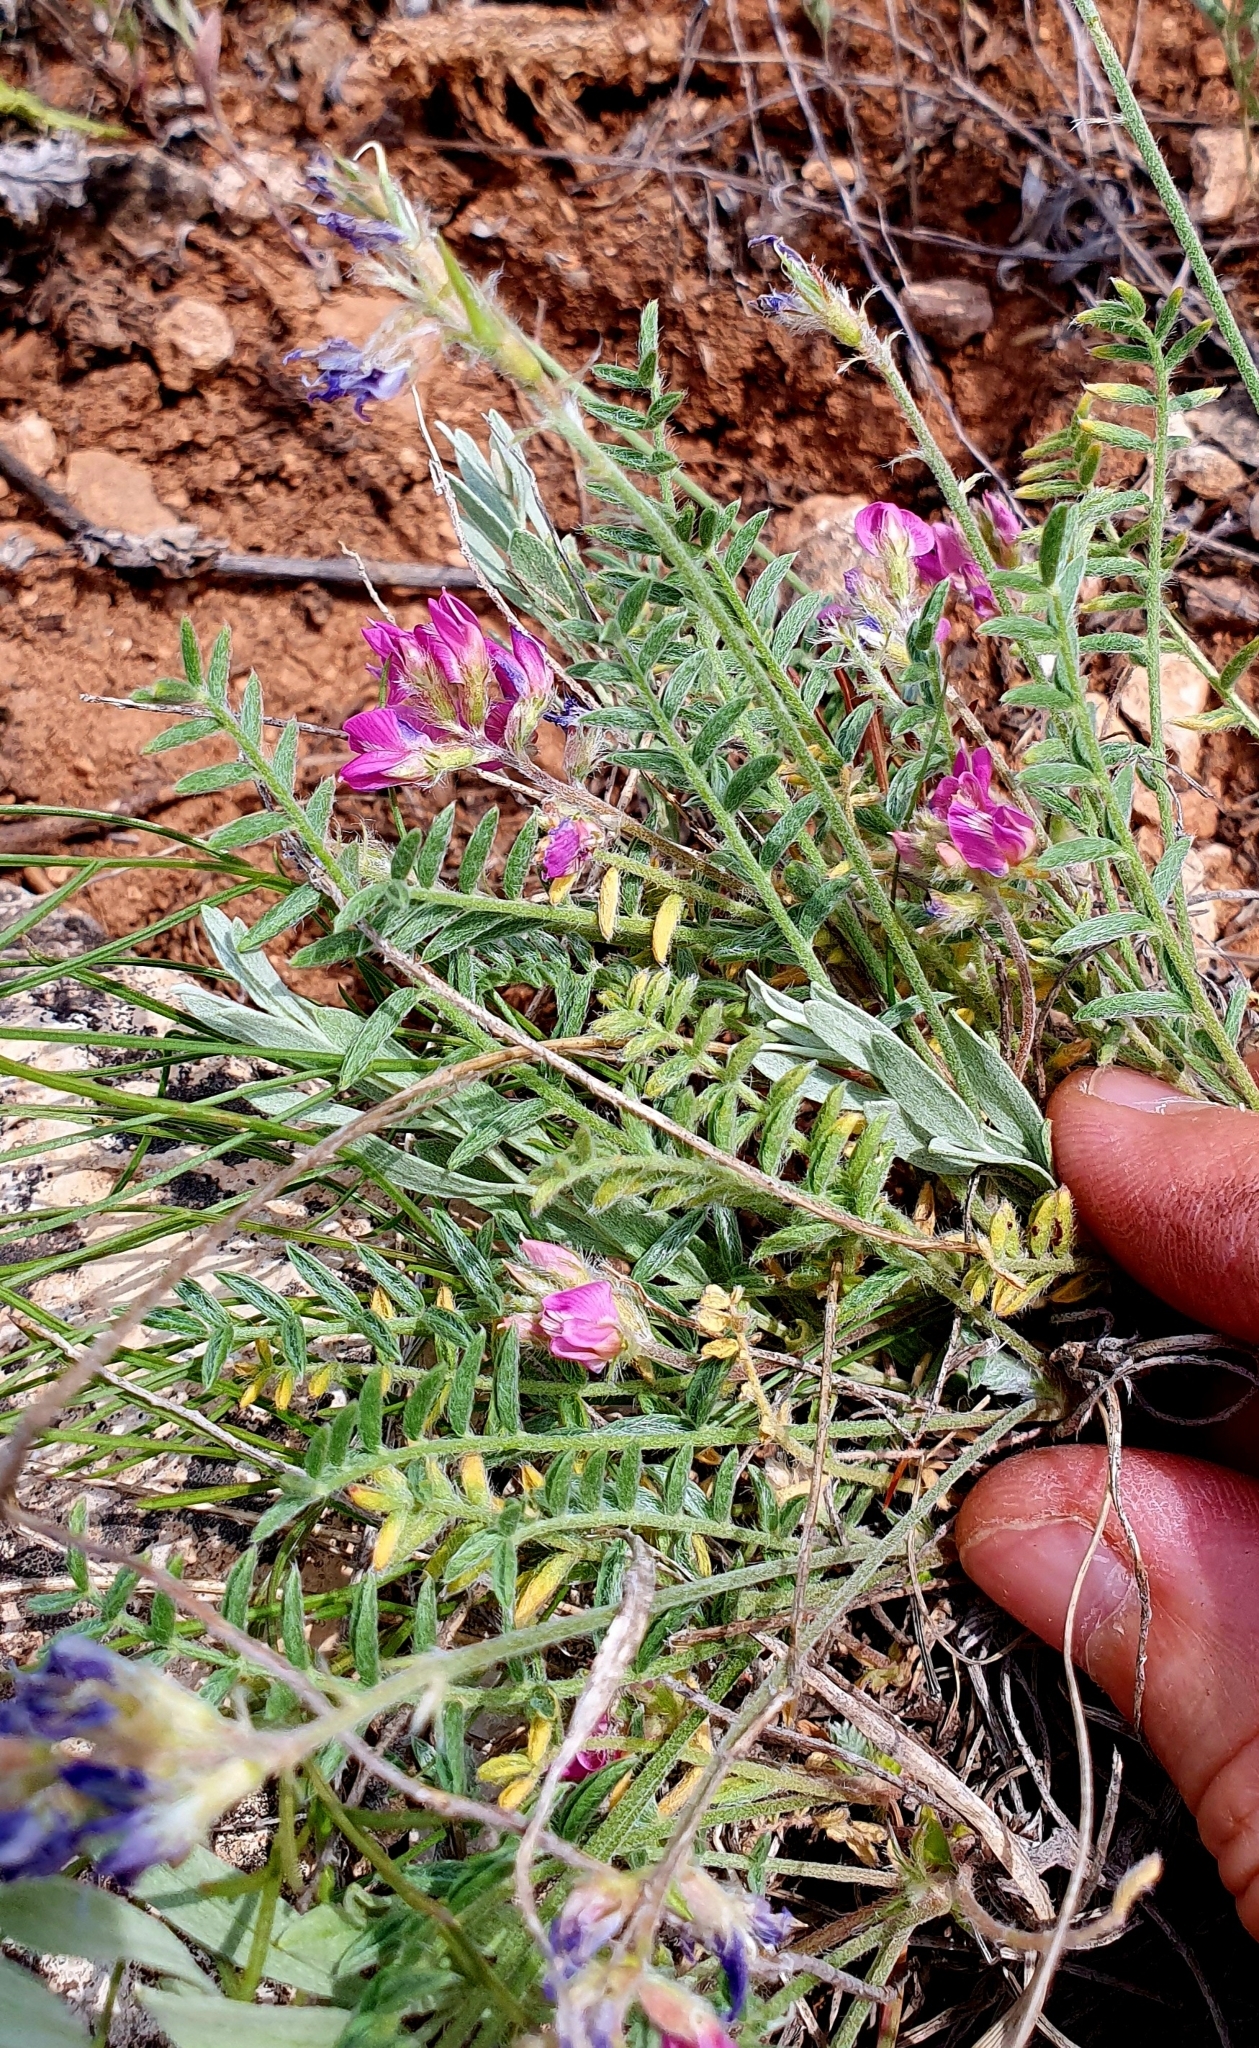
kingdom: Plantae
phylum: Tracheophyta
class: Magnoliopsida
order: Fabales
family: Fabaceae
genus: Oxytropis
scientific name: Oxytropis floribunda
